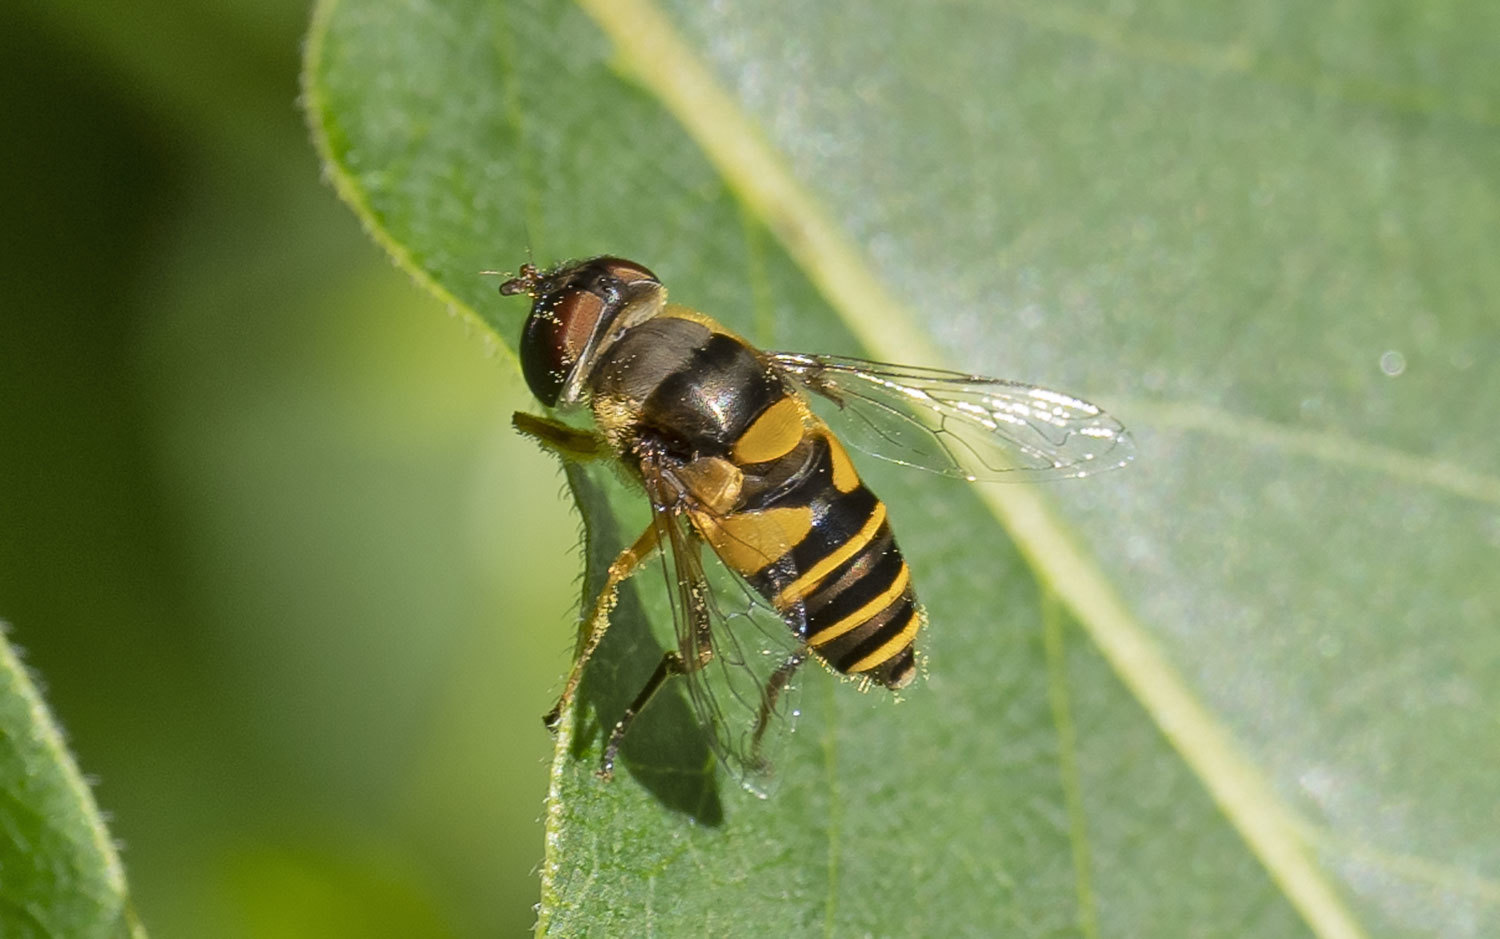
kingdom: Animalia
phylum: Arthropoda
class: Insecta
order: Diptera
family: Syrphidae
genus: Eristalis
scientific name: Eristalis transversa
